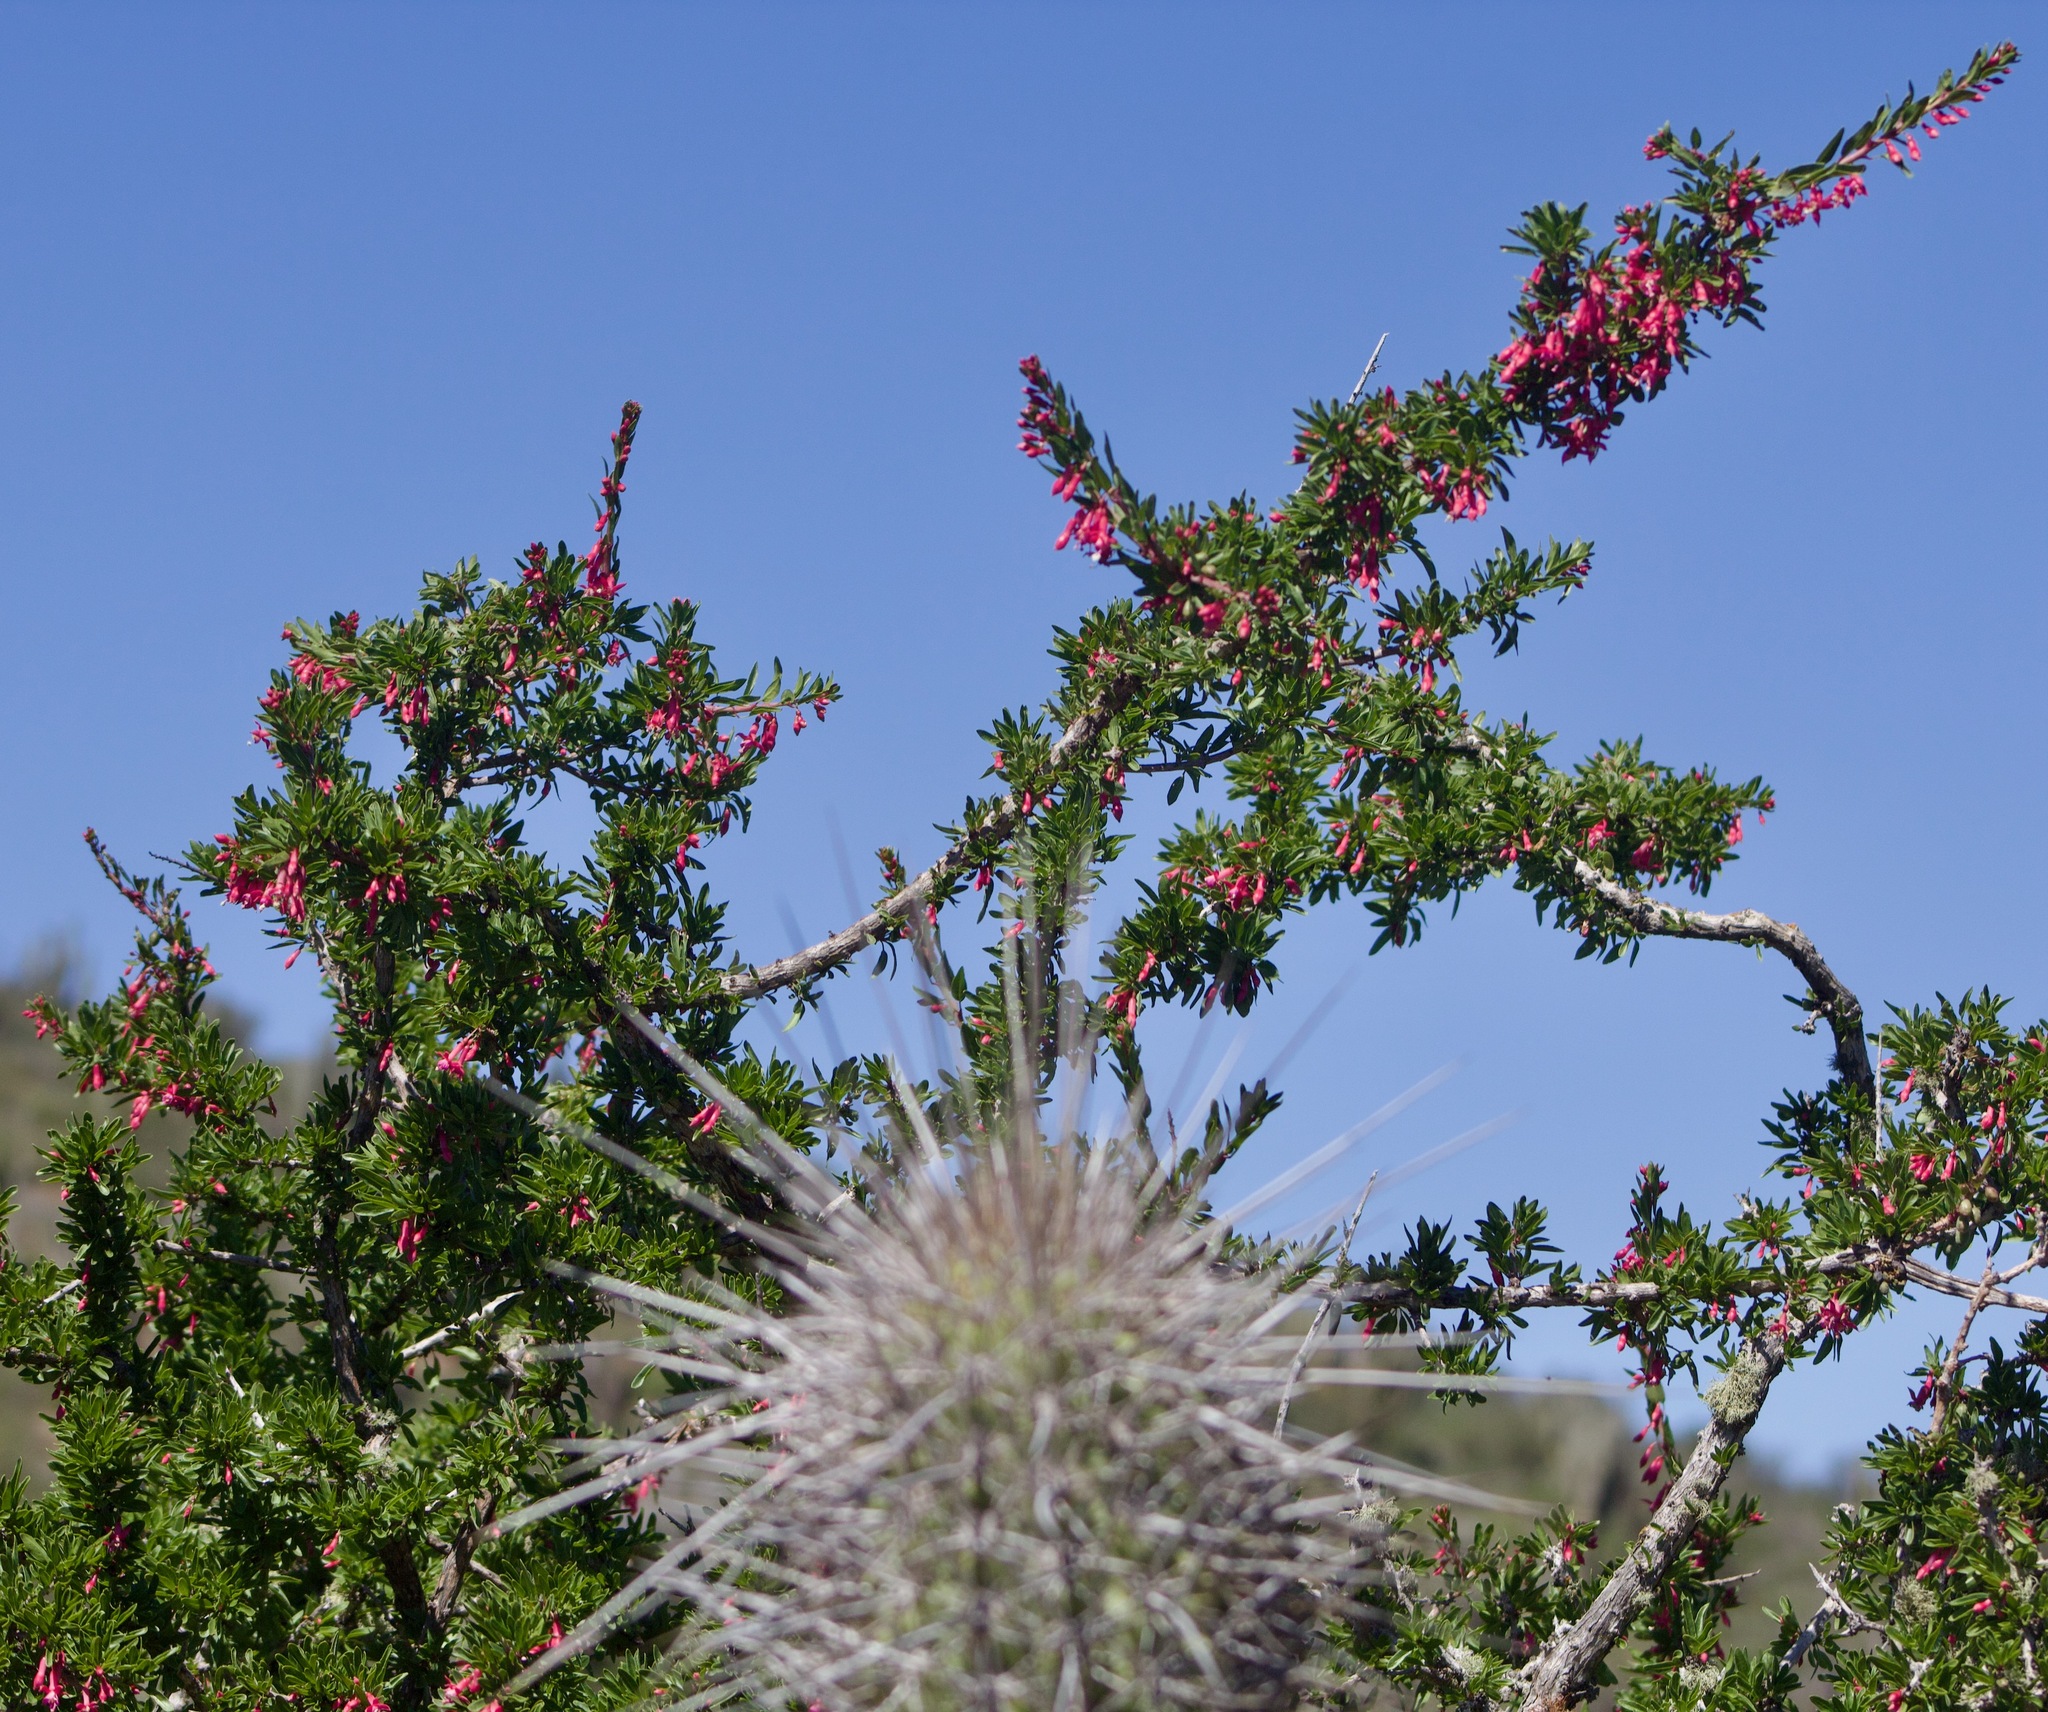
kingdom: Plantae
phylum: Tracheophyta
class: Magnoliopsida
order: Myrtales
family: Onagraceae
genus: Fuchsia
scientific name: Fuchsia lycioides
